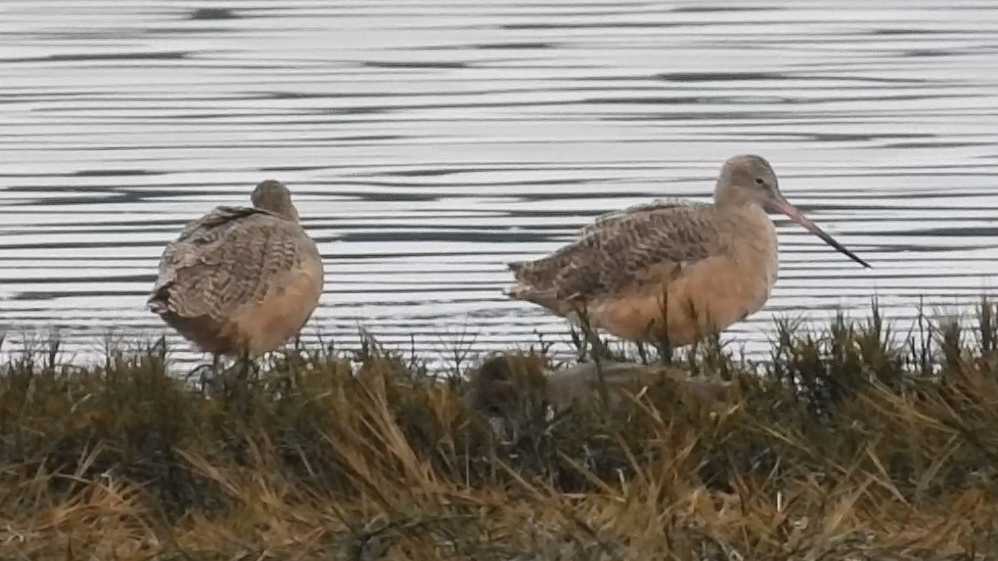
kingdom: Animalia
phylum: Chordata
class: Aves
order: Charadriiformes
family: Scolopacidae
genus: Limosa
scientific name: Limosa fedoa
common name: Marbled godwit
